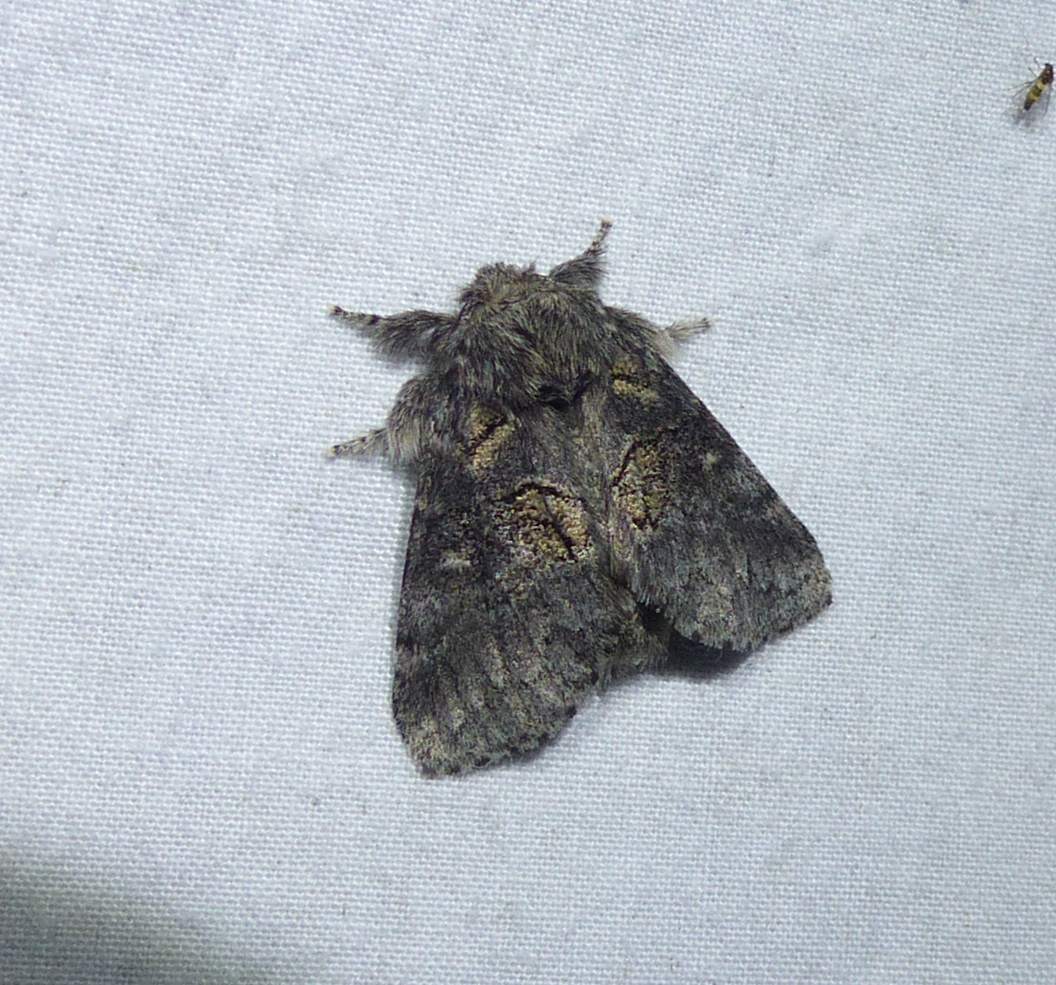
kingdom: Animalia
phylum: Arthropoda
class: Insecta
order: Lepidoptera
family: Notodontidae
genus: Gluphisia
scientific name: Gluphisia septentrionis
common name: Common gluphisia
